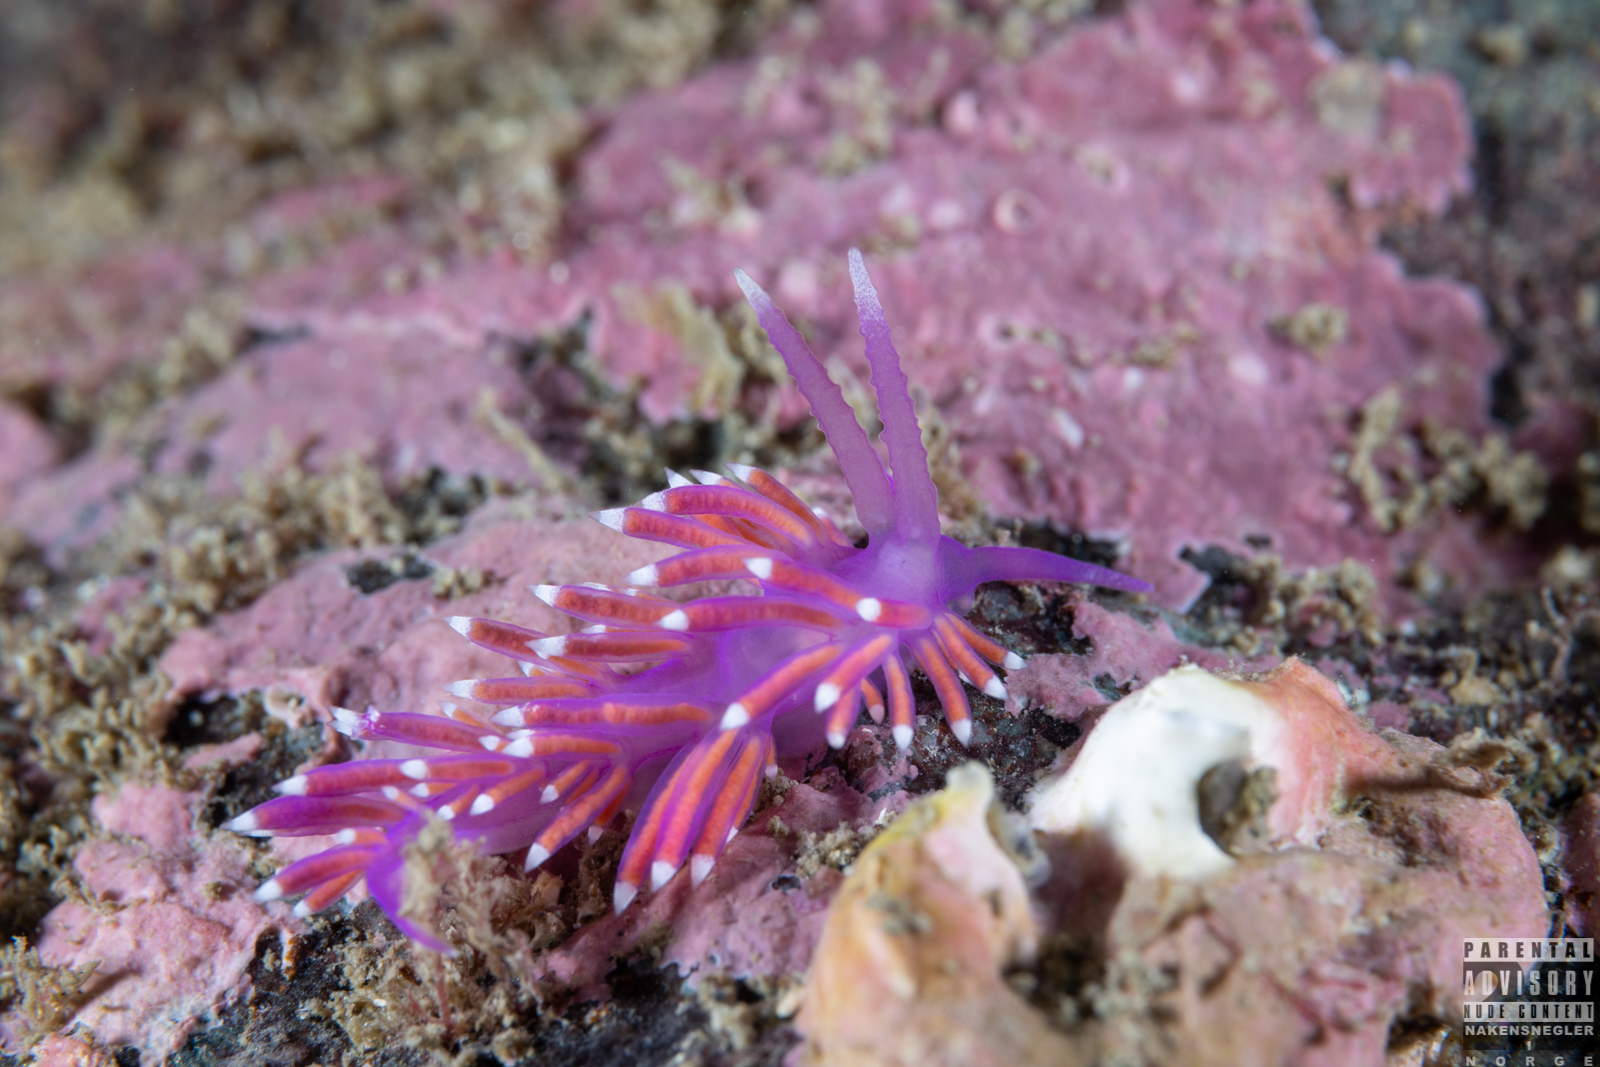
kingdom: Animalia
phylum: Mollusca
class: Gastropoda
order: Nudibranchia
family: Flabellinidae
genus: Edmundsella
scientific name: Edmundsella pedata
